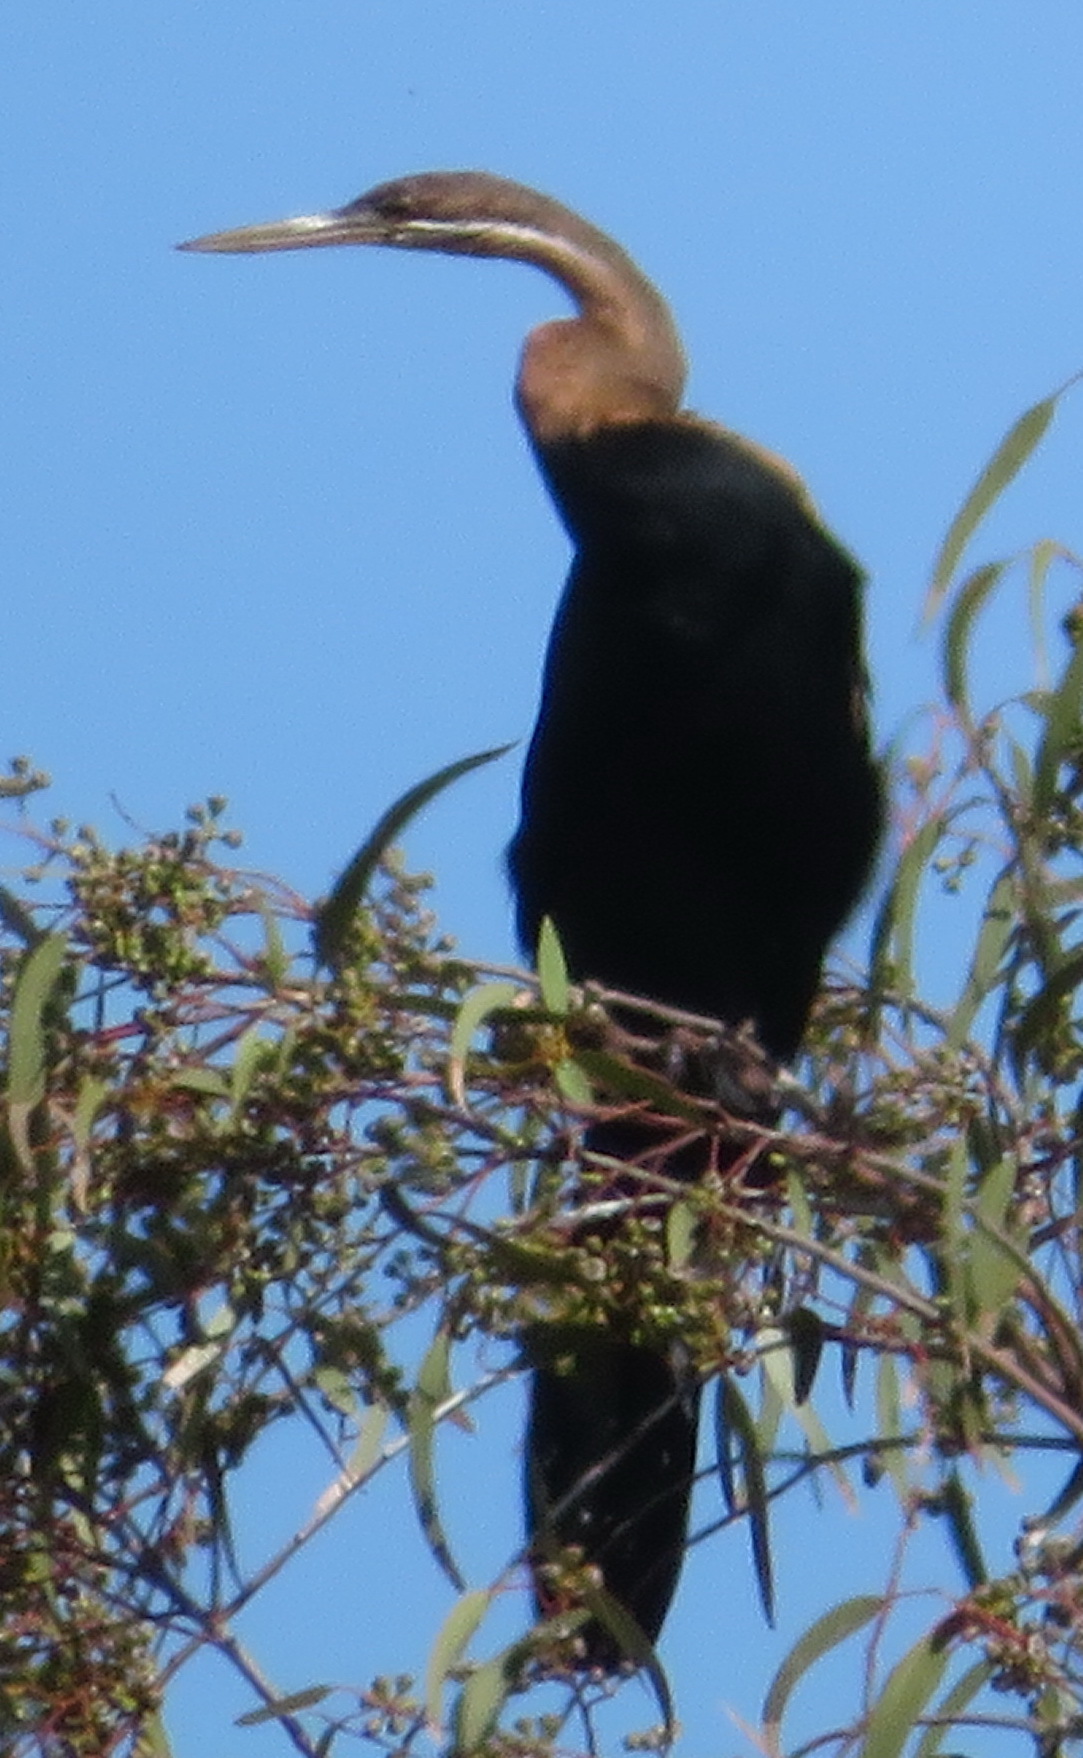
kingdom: Animalia
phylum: Chordata
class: Aves
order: Suliformes
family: Anhingidae
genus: Anhinga
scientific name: Anhinga rufa
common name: African darter
